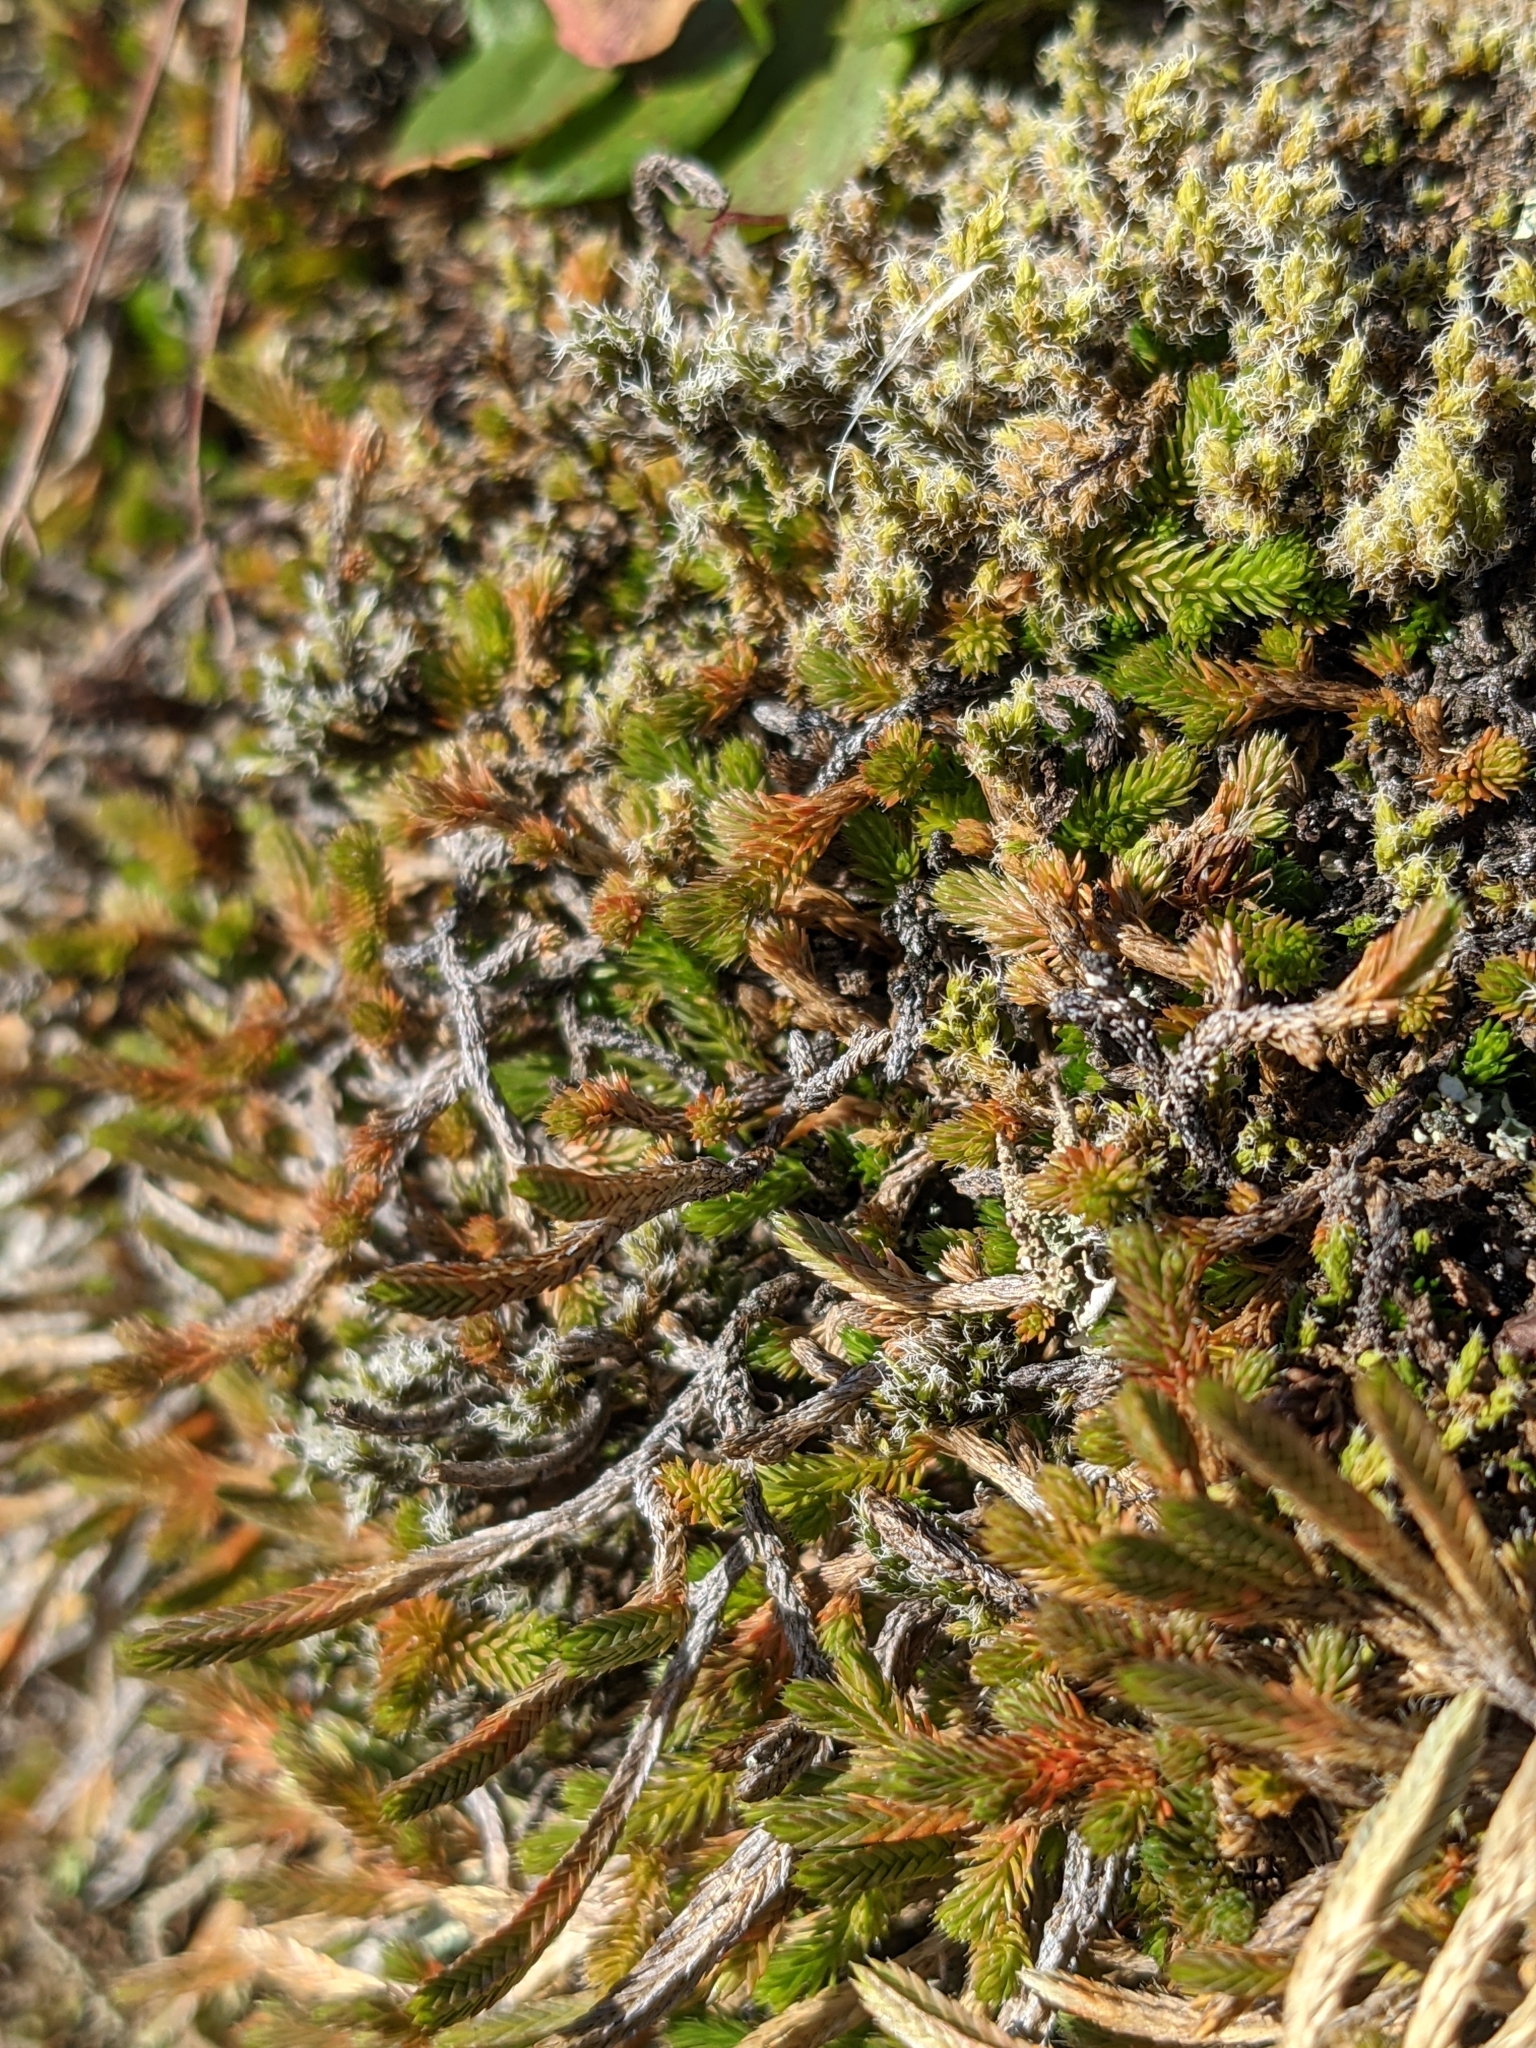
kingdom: Plantae
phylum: Tracheophyta
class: Lycopodiopsida
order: Selaginellales
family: Selaginellaceae
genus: Selaginella
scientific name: Selaginella wallacei
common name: Wallace's selaginella
